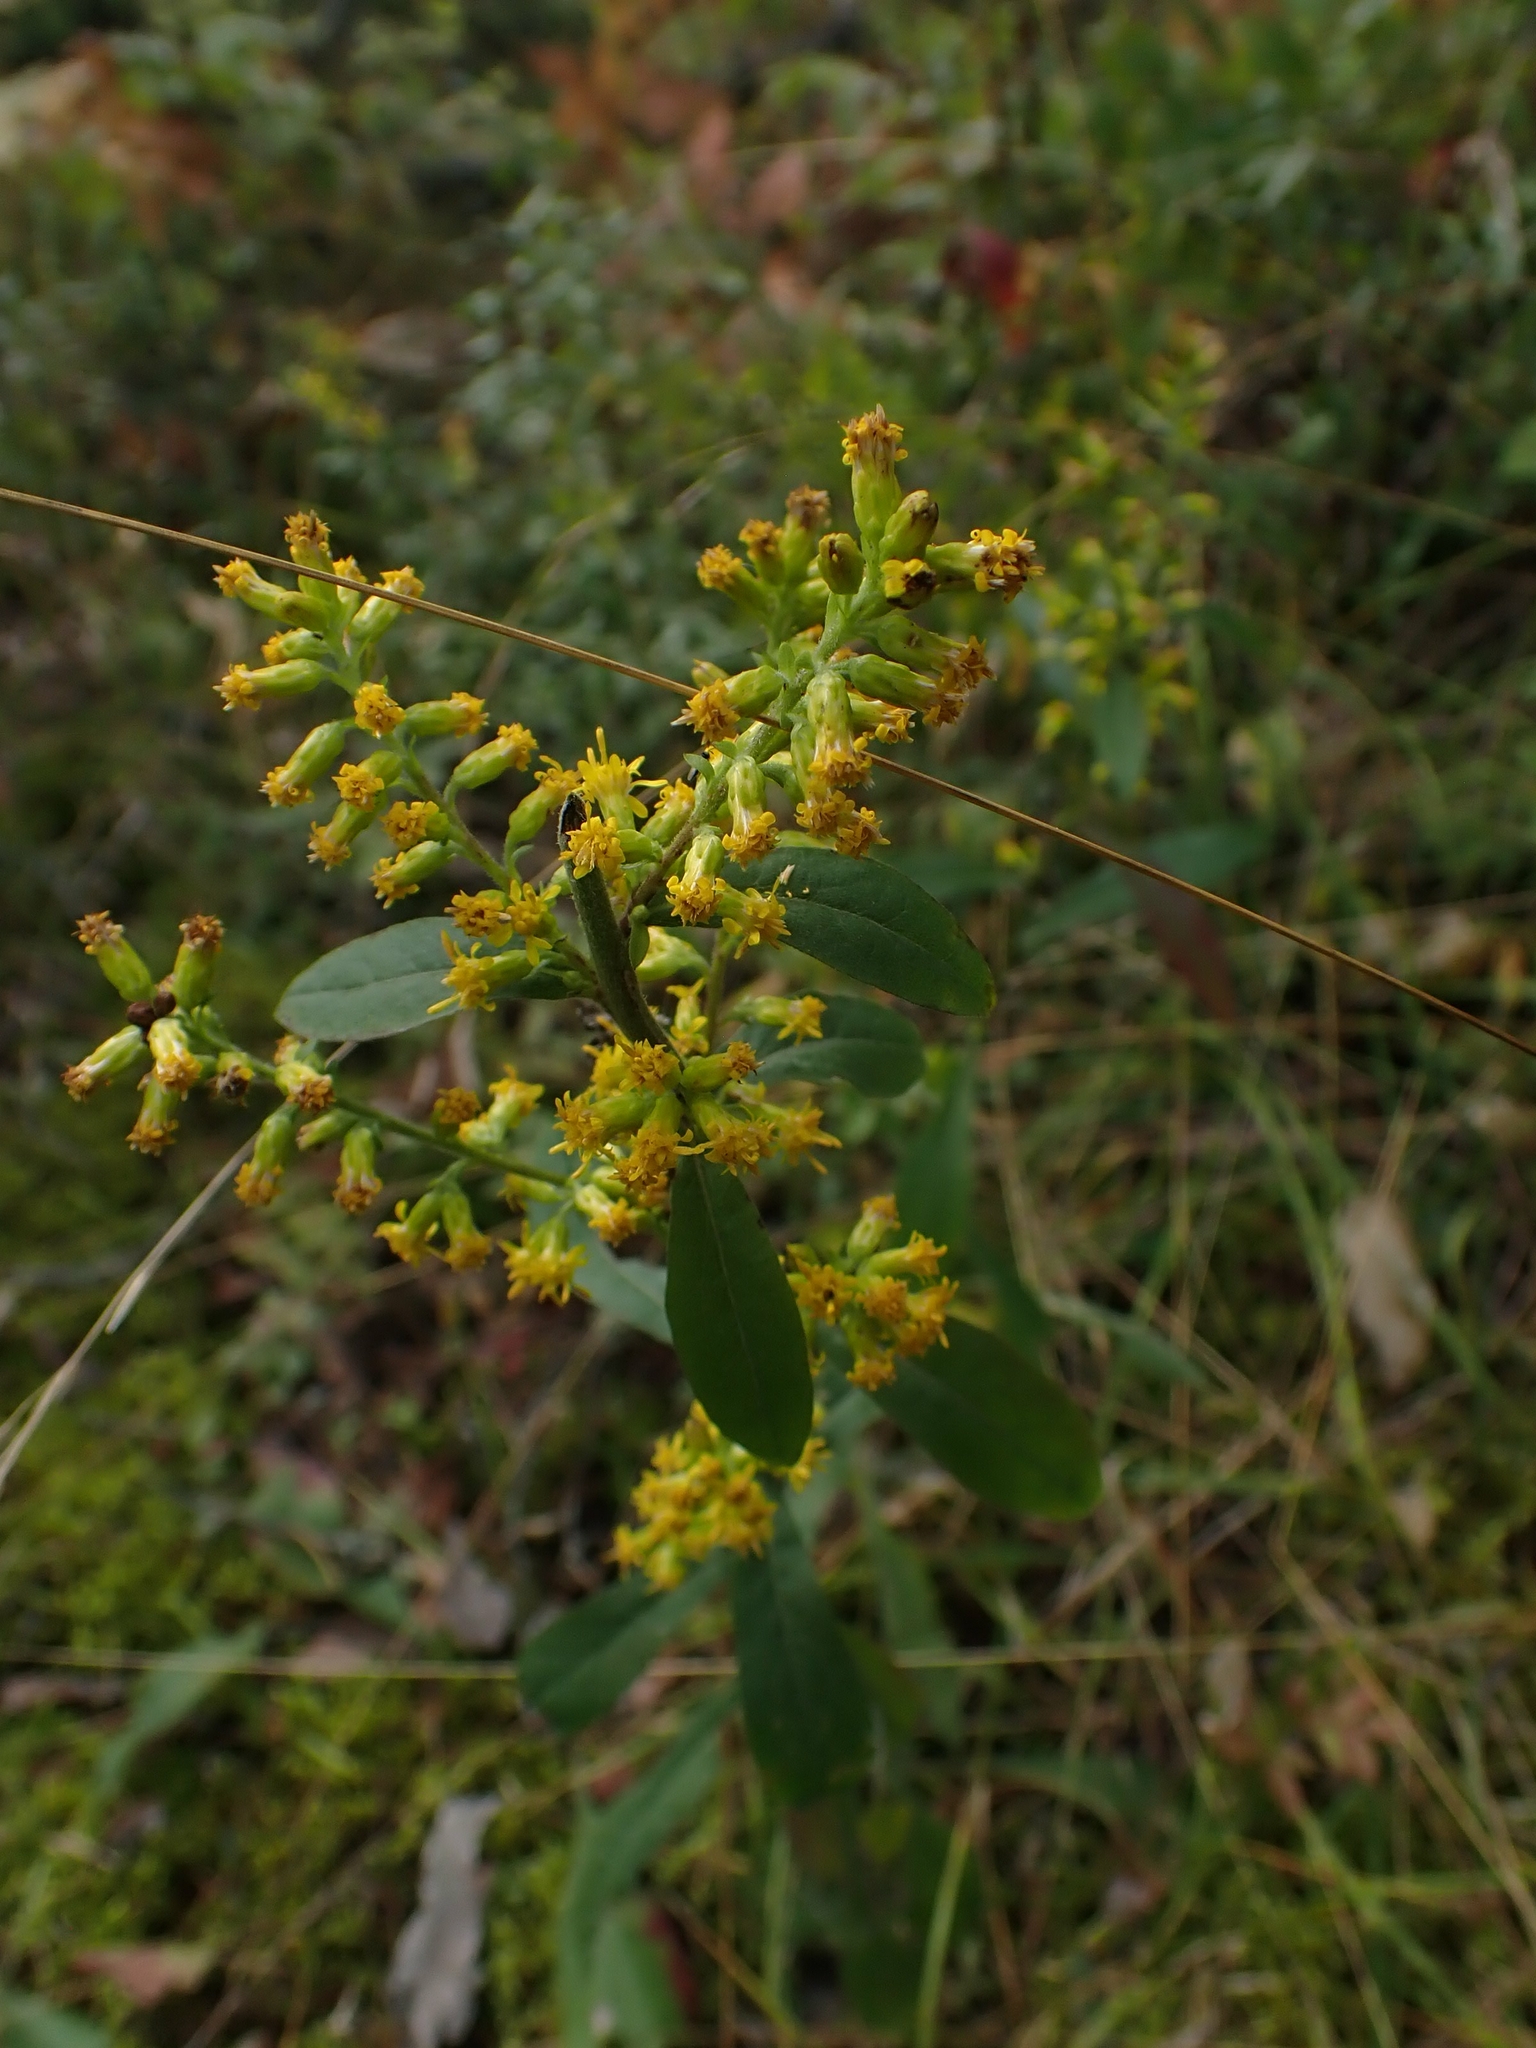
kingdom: Plantae
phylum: Tracheophyta
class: Magnoliopsida
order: Asterales
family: Asteraceae
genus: Solidago
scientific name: Solidago hispida
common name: Hairy goldenrod
